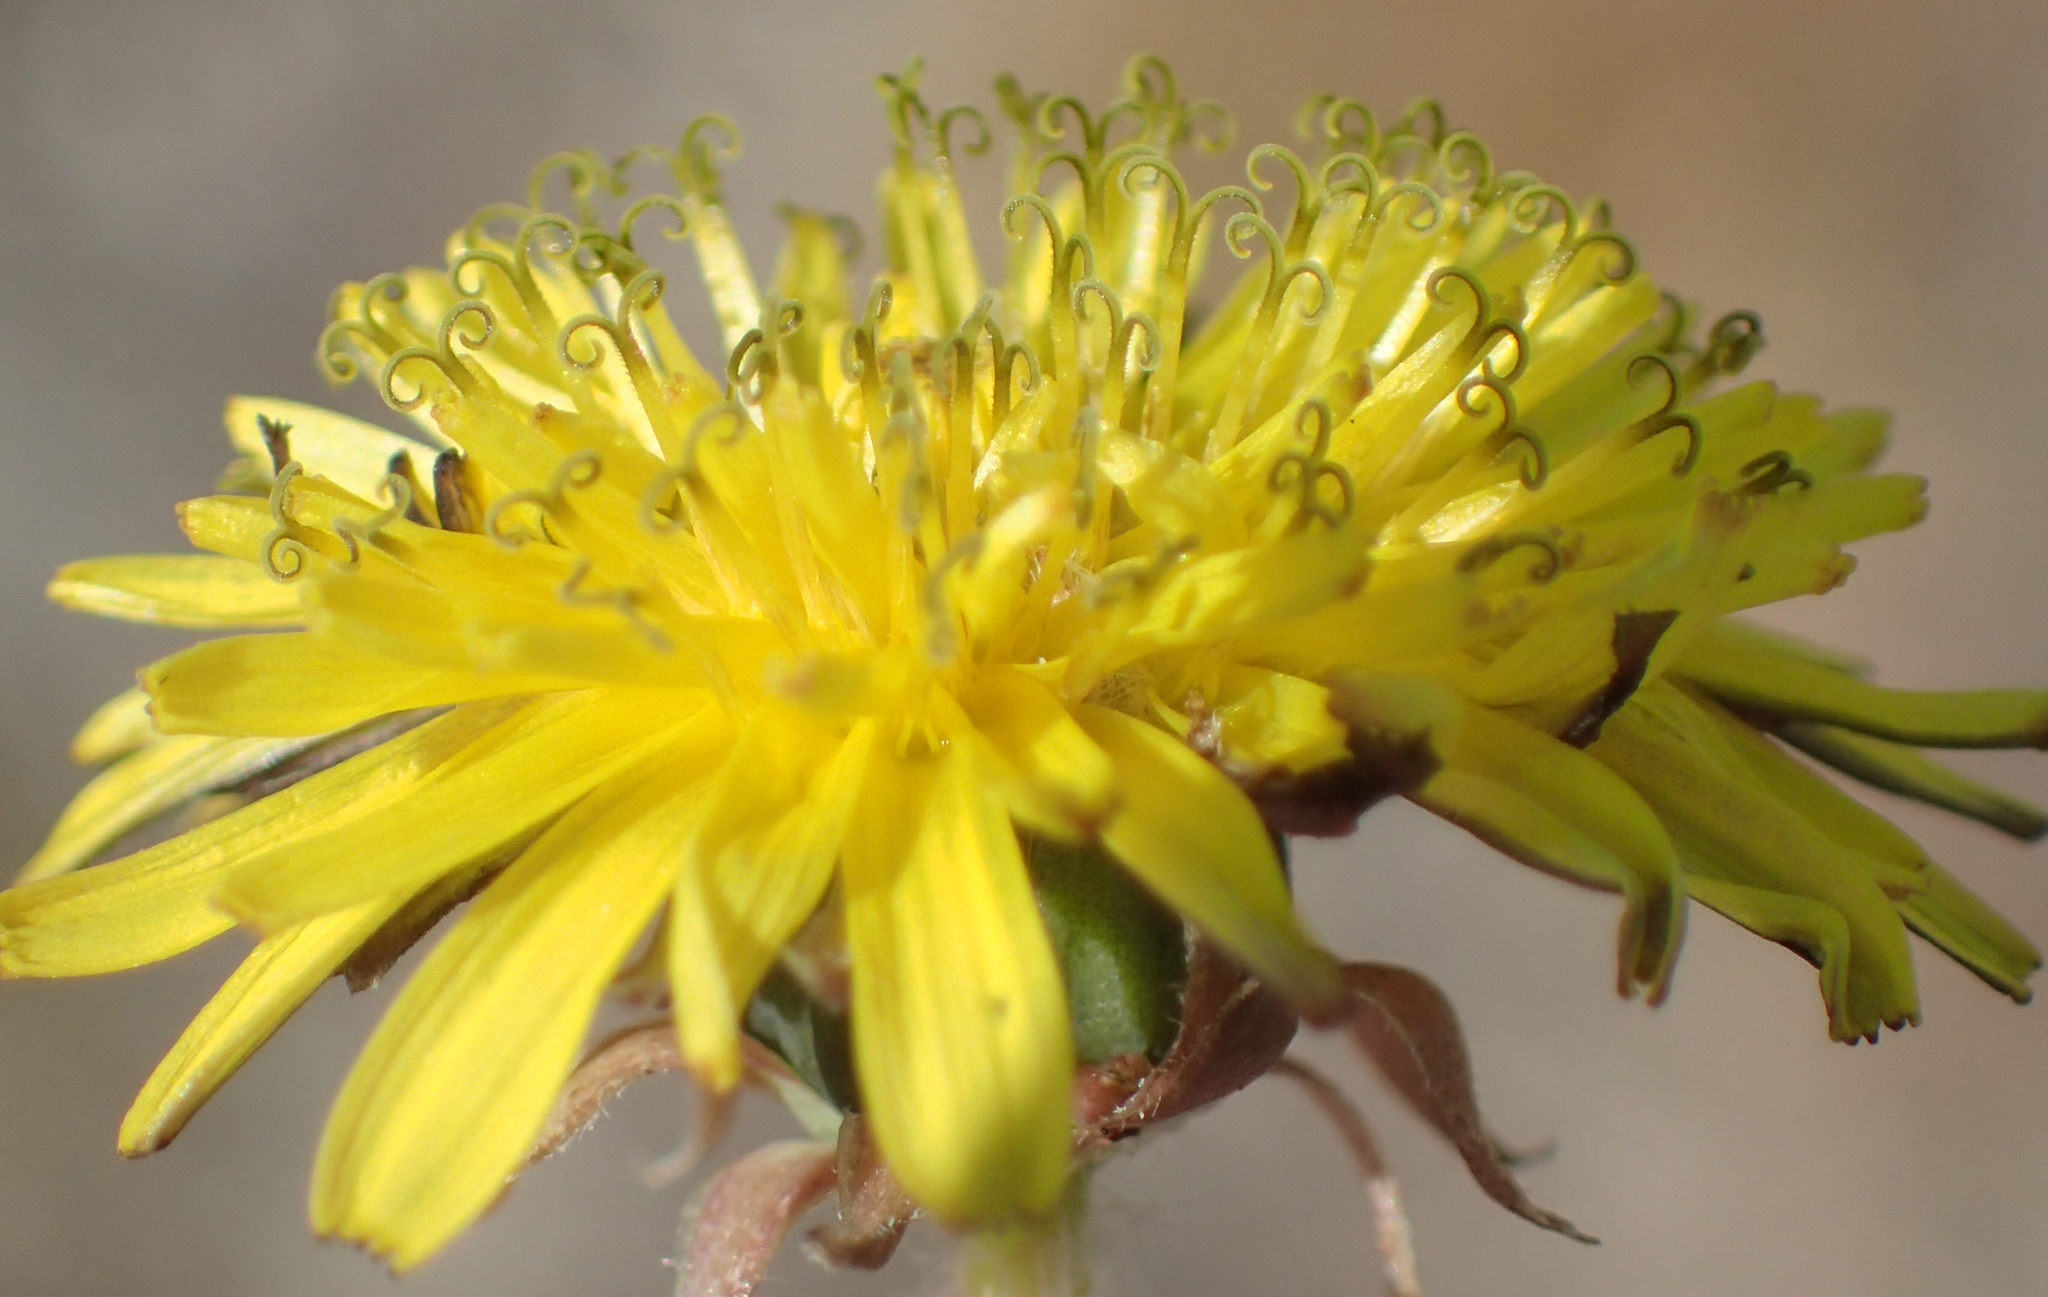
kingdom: Plantae
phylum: Tracheophyta
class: Magnoliopsida
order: Asterales
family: Asteraceae
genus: Taraxacum
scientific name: Taraxacum officinale
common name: Common dandelion
